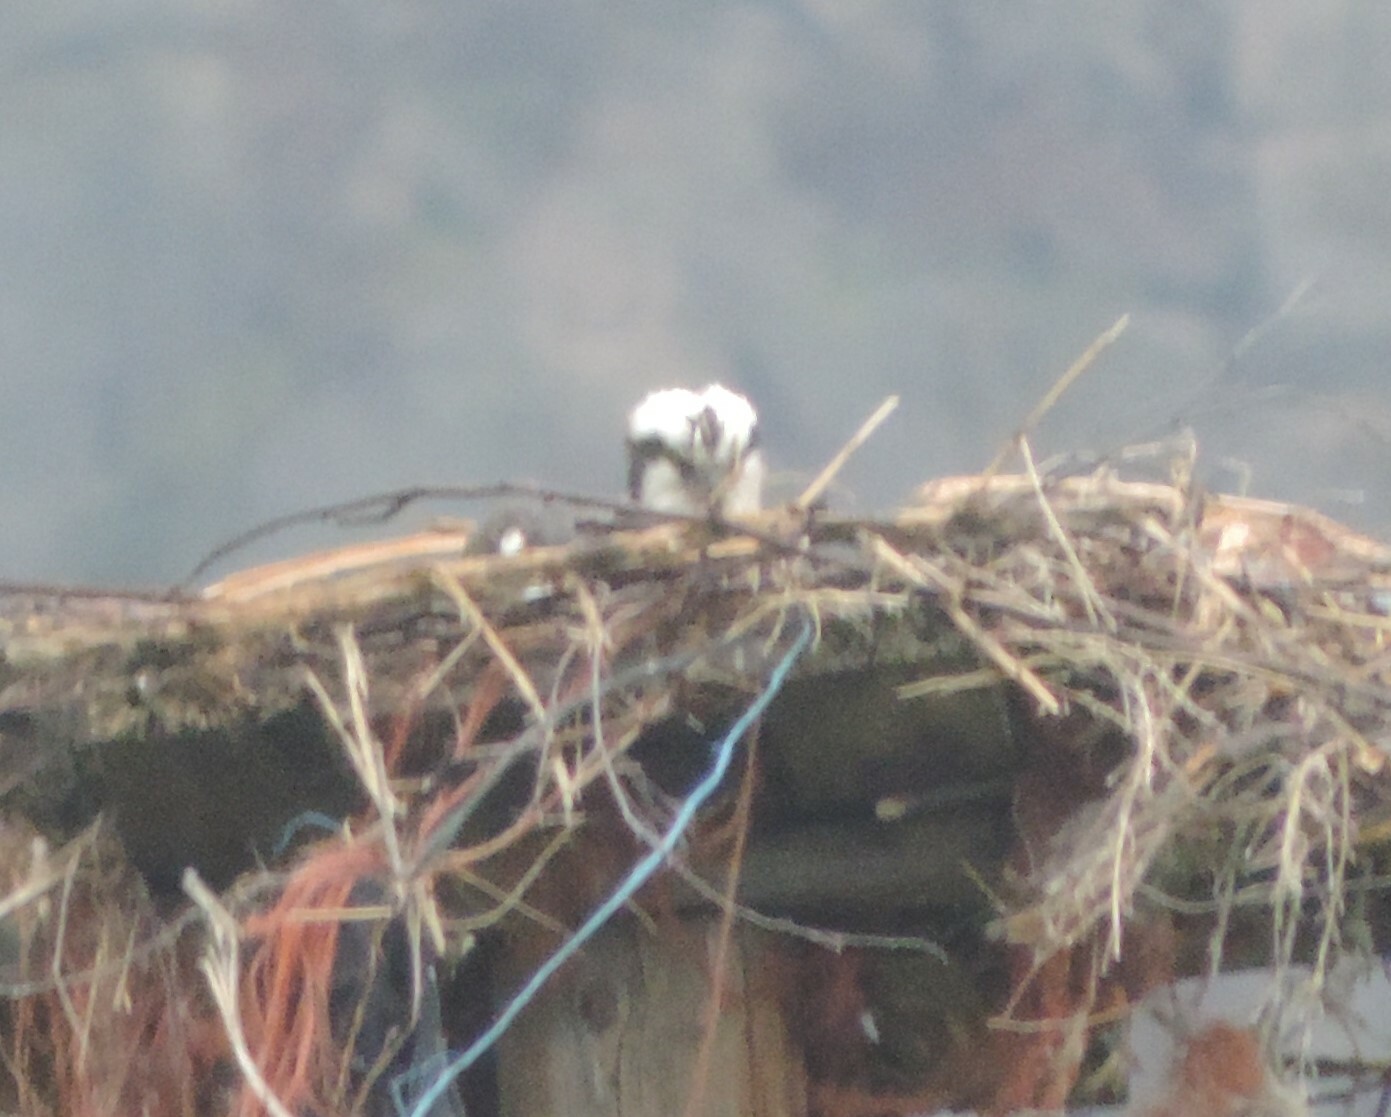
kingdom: Animalia
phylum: Chordata
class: Aves
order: Accipitriformes
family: Pandionidae
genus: Pandion
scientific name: Pandion haliaetus
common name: Osprey
